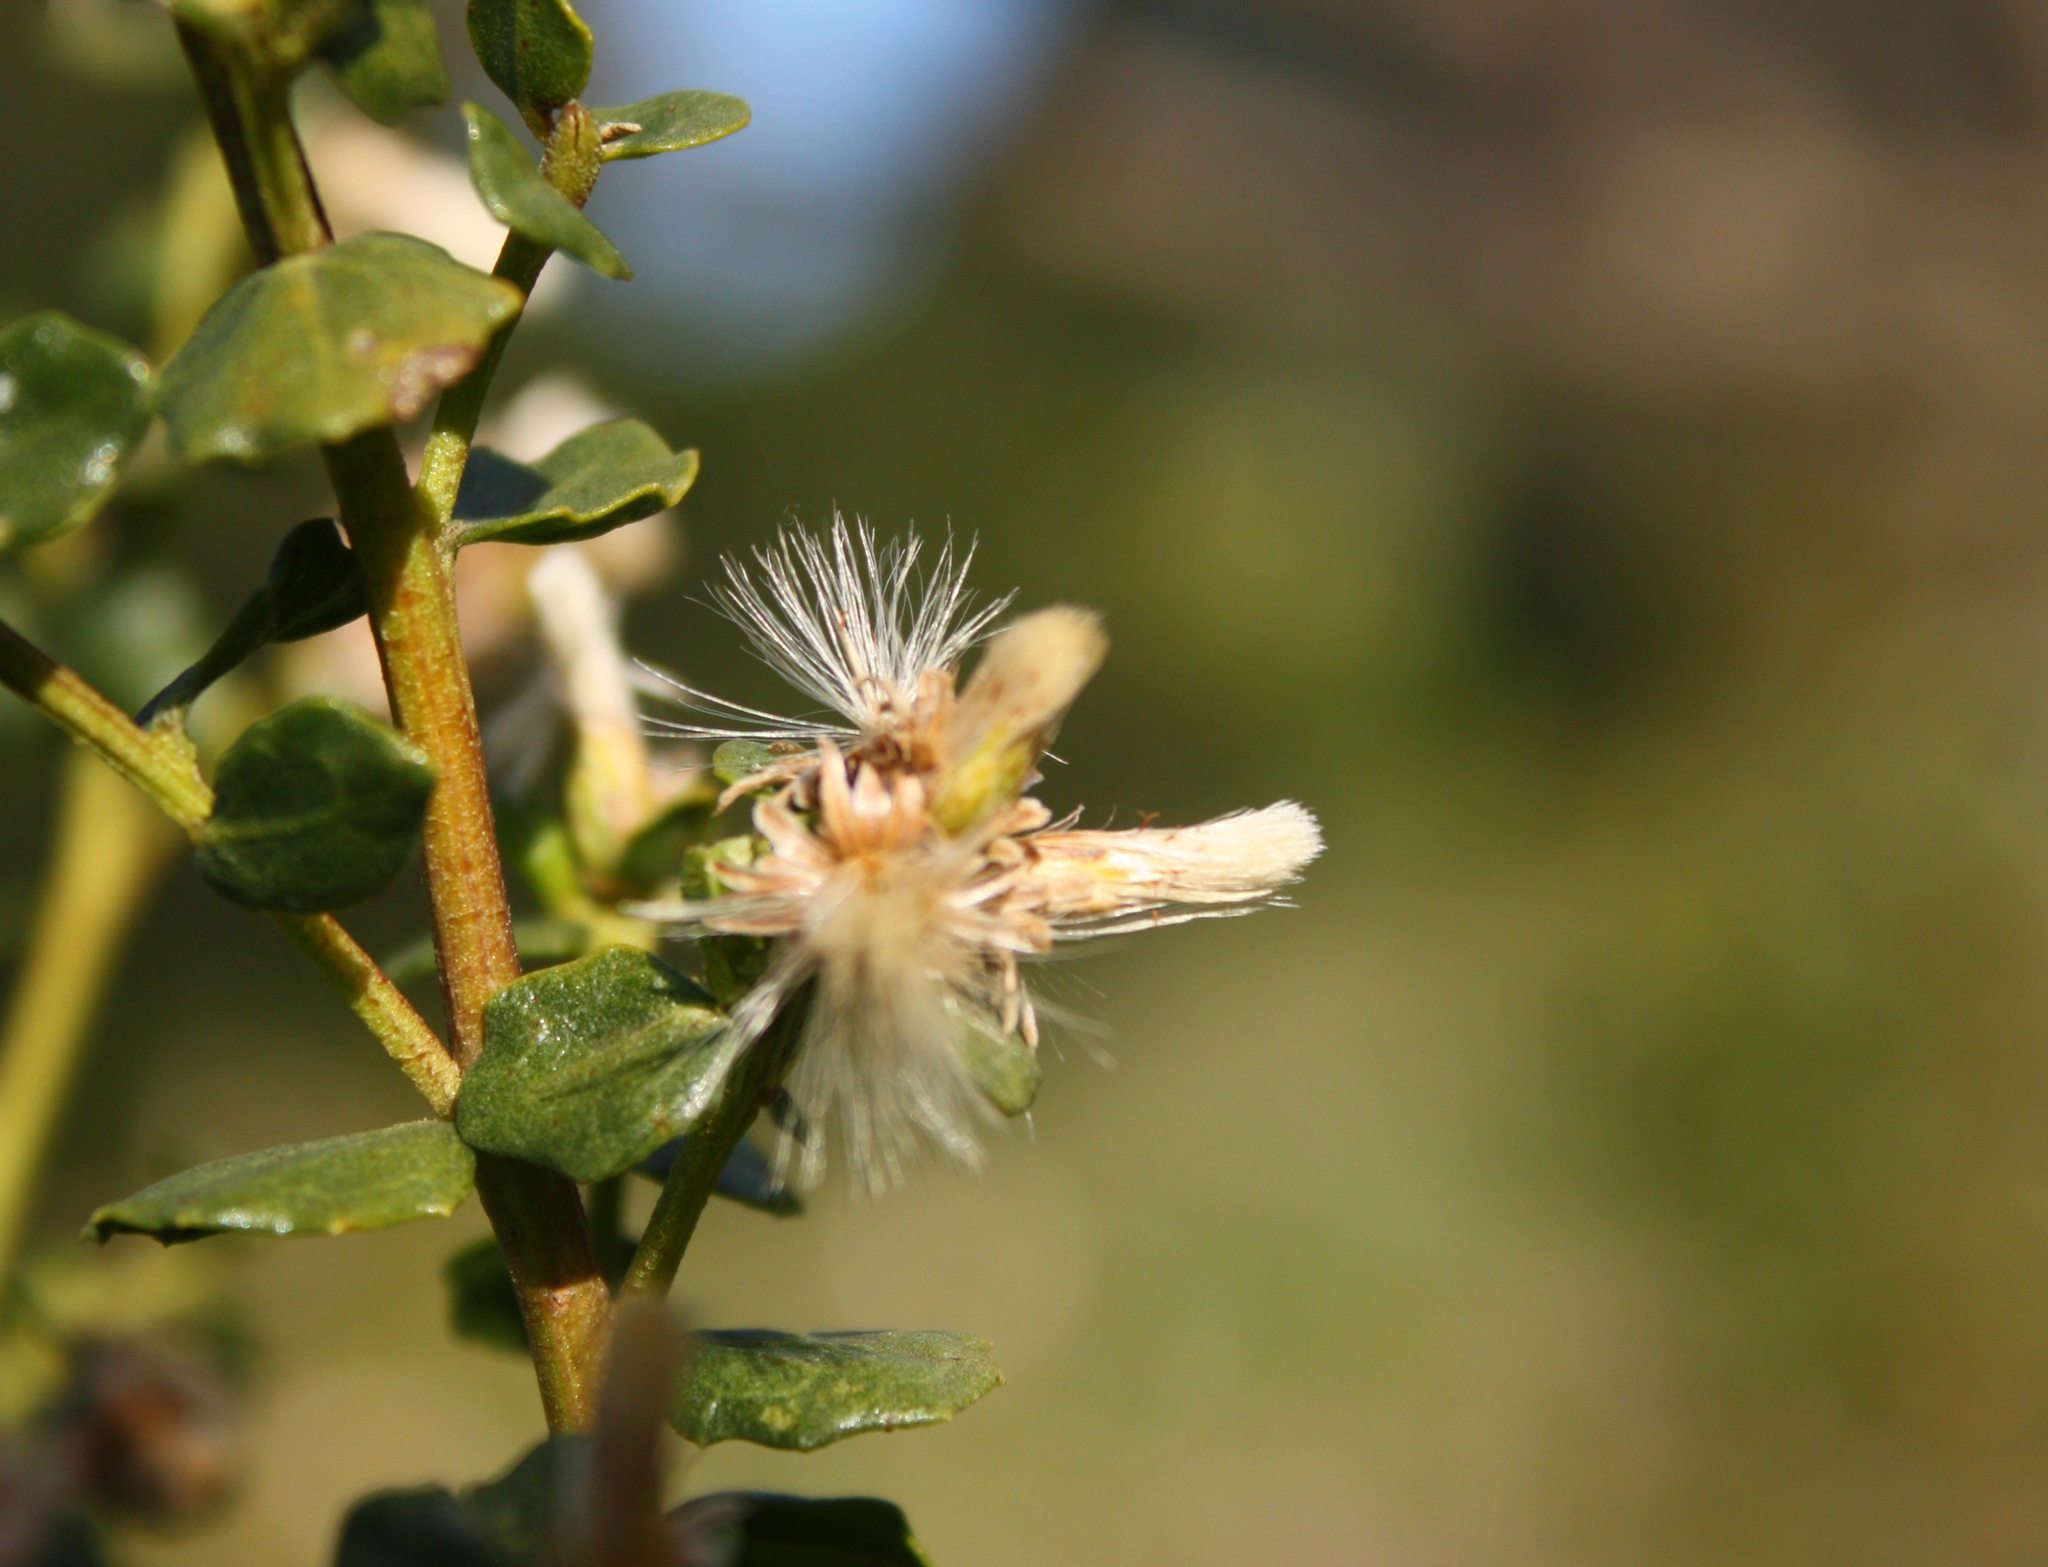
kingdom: Plantae
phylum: Tracheophyta
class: Magnoliopsida
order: Asterales
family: Asteraceae
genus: Baccharis
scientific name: Baccharis pilularis
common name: Coyotebrush
